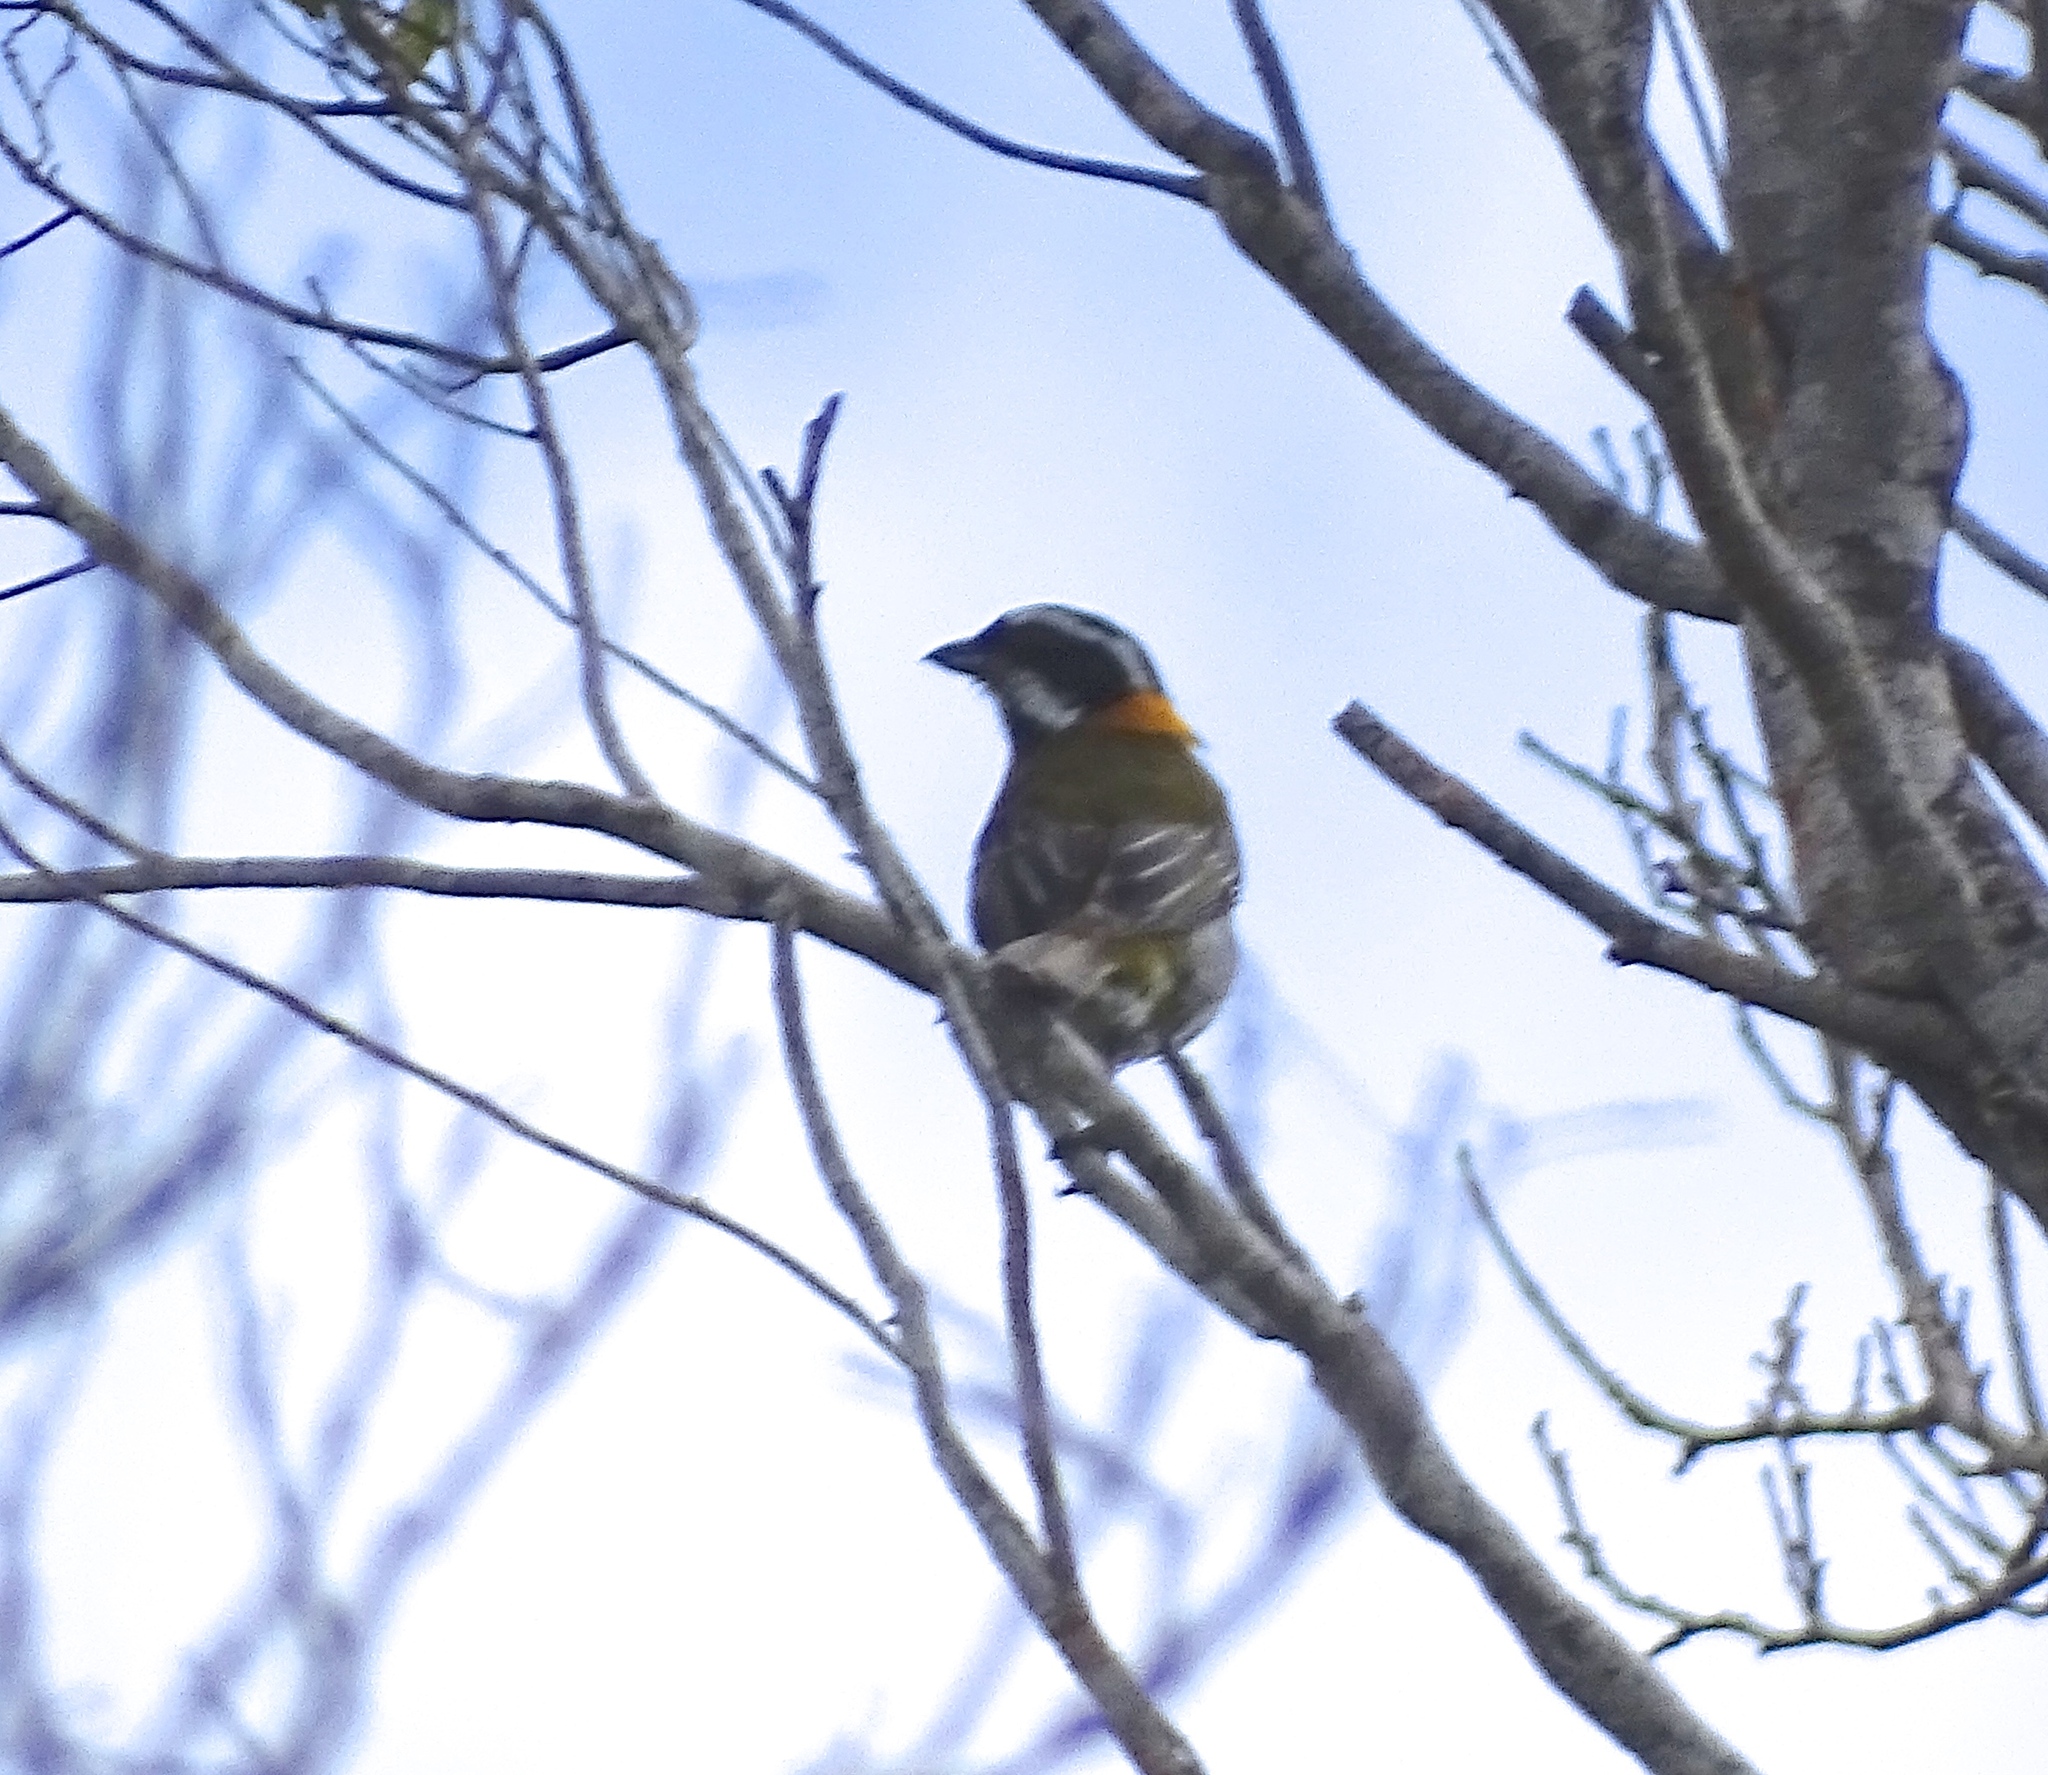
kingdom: Animalia
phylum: Chordata
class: Aves
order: Passeriformes
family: Spindalidae
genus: Spindalis
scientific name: Spindalis portoricensis
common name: Puerto rican spindalis
